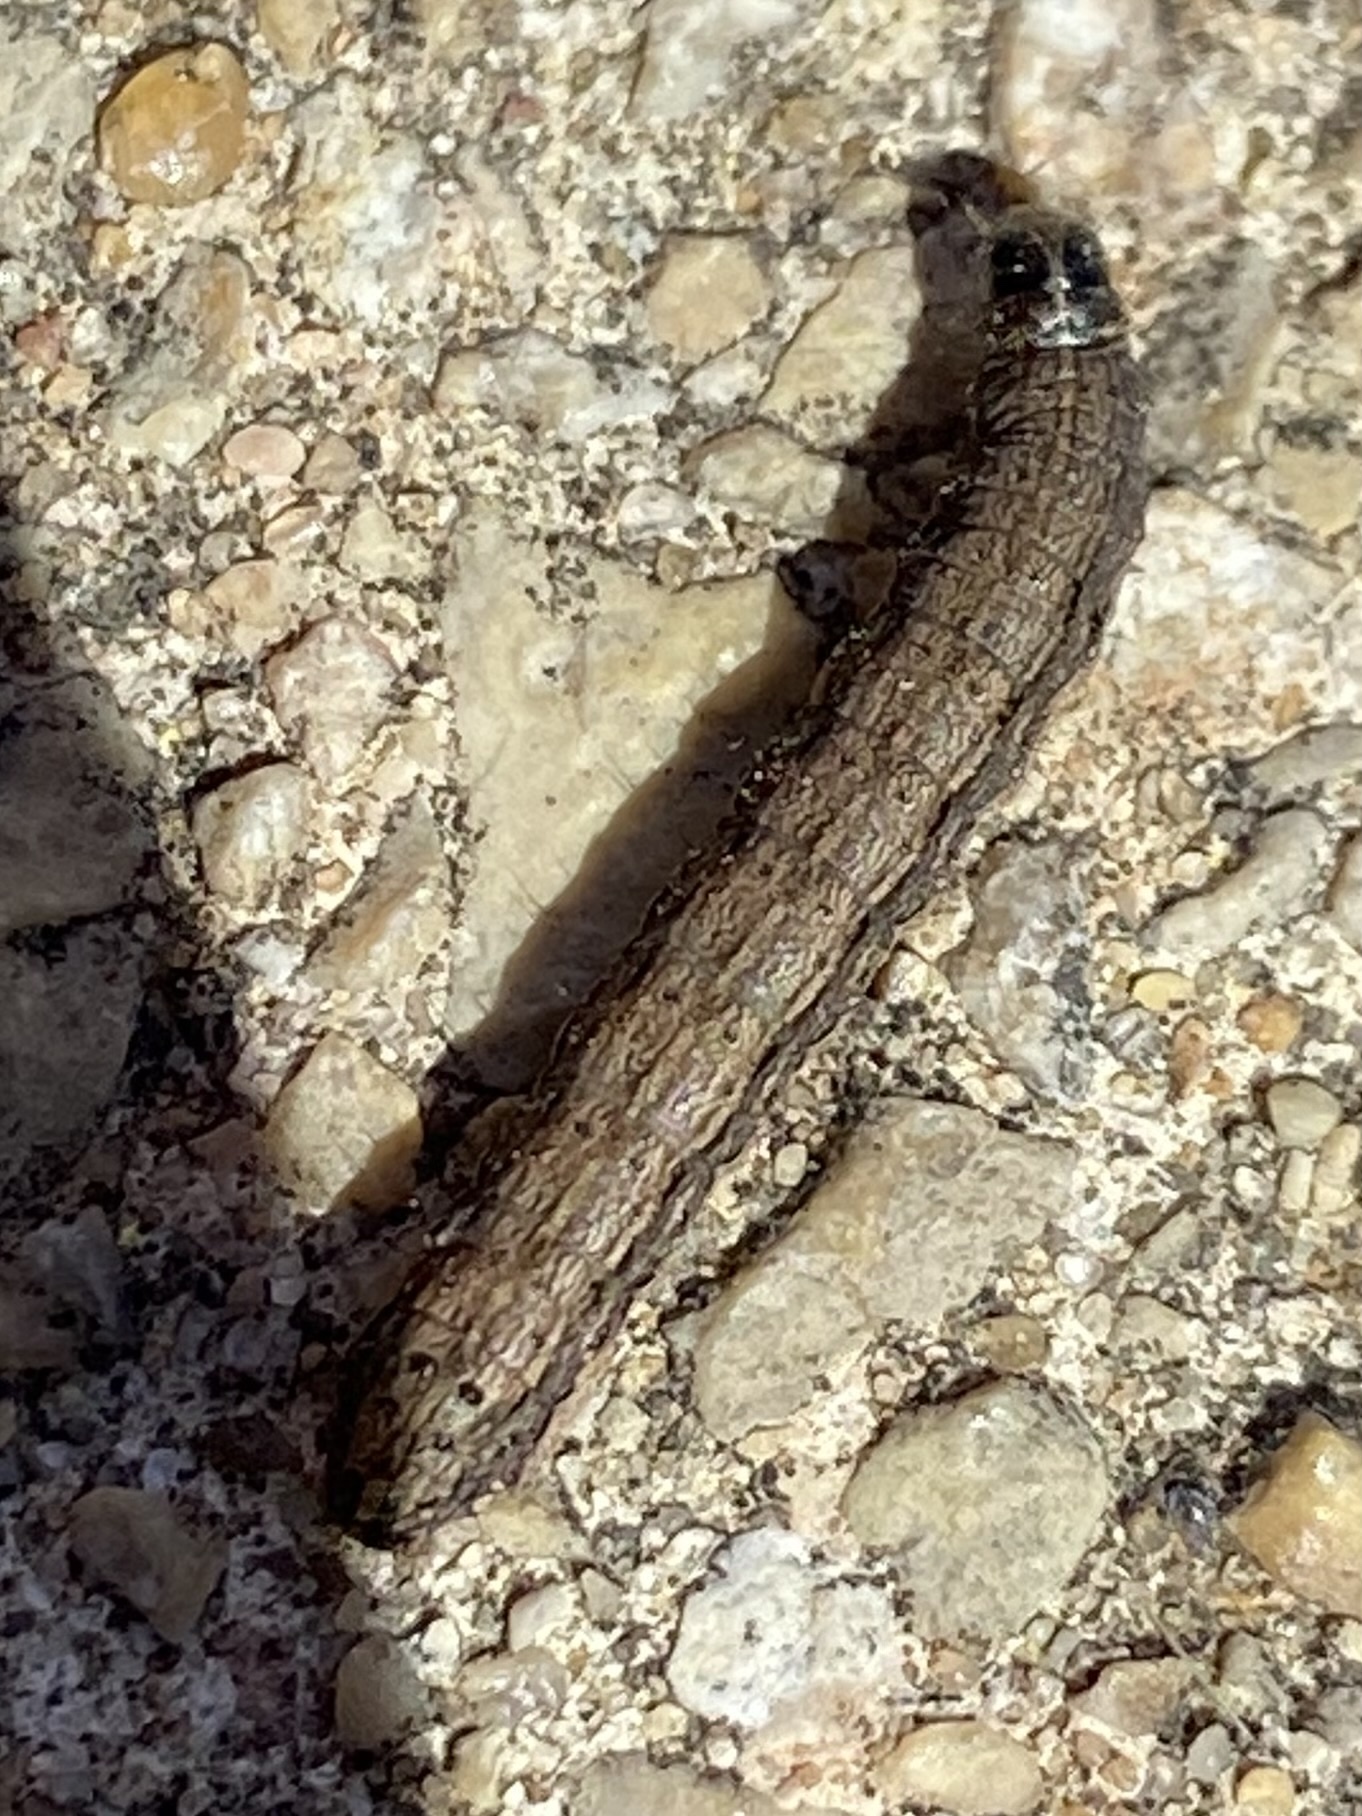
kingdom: Animalia
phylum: Arthropoda
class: Insecta
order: Lepidoptera
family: Noctuidae
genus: Spodoptera
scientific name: Spodoptera frugiperda
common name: Fall armyworm
